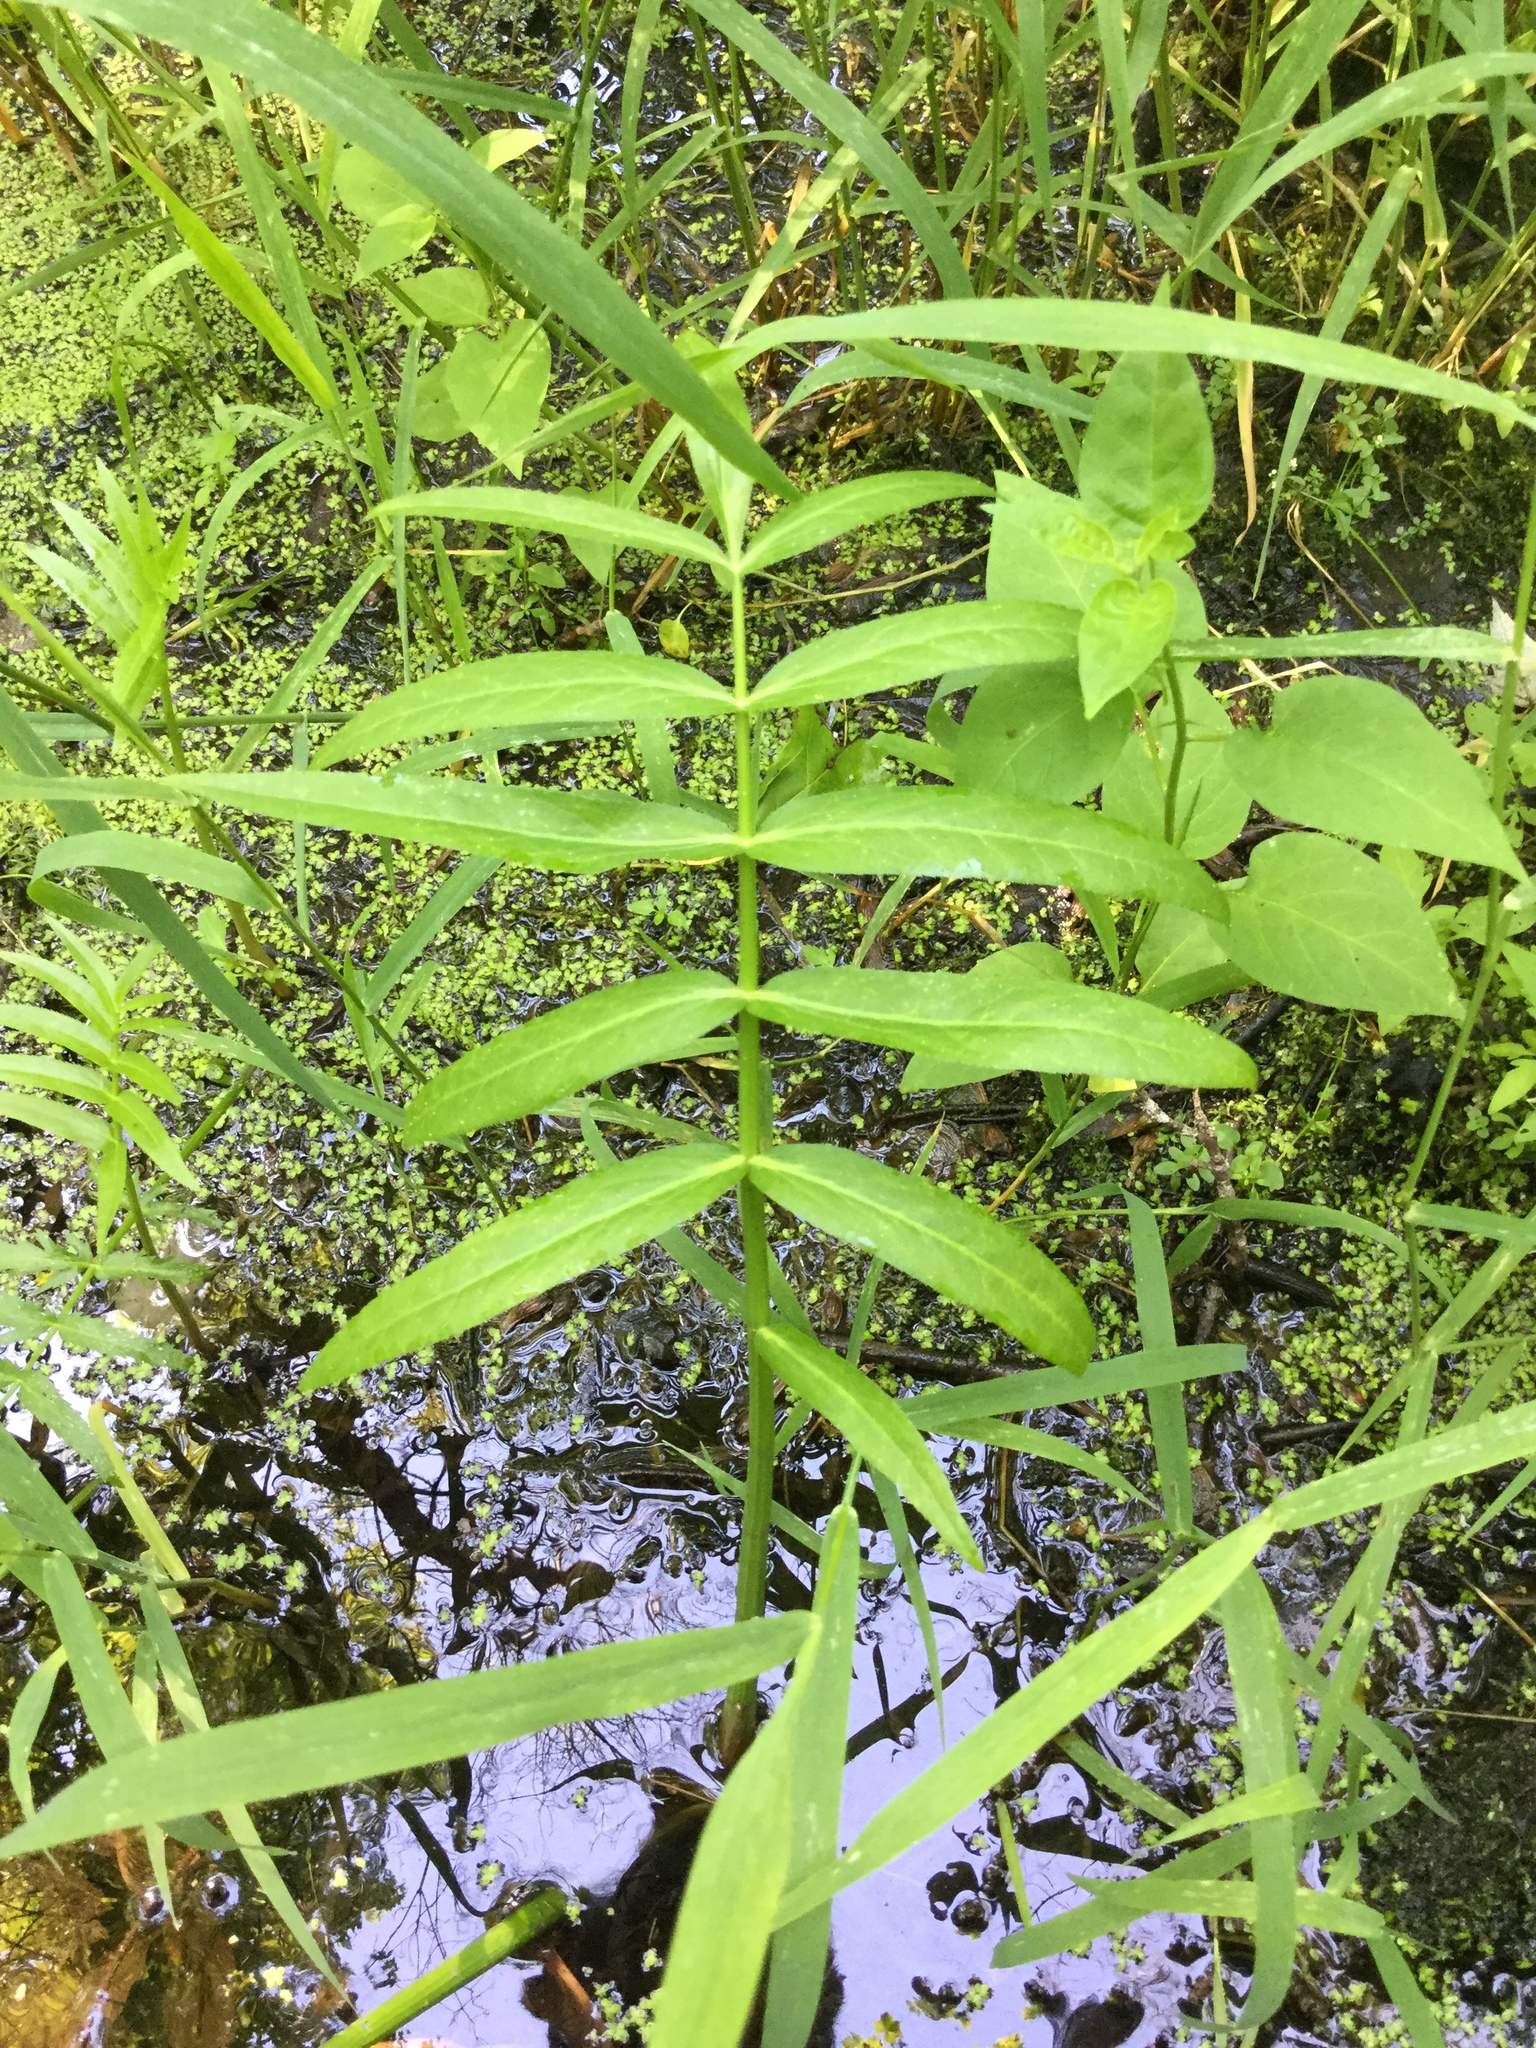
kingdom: Plantae
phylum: Tracheophyta
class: Magnoliopsida
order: Apiales
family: Apiaceae
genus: Sium
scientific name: Sium suave
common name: Hemlock water-parsnip
